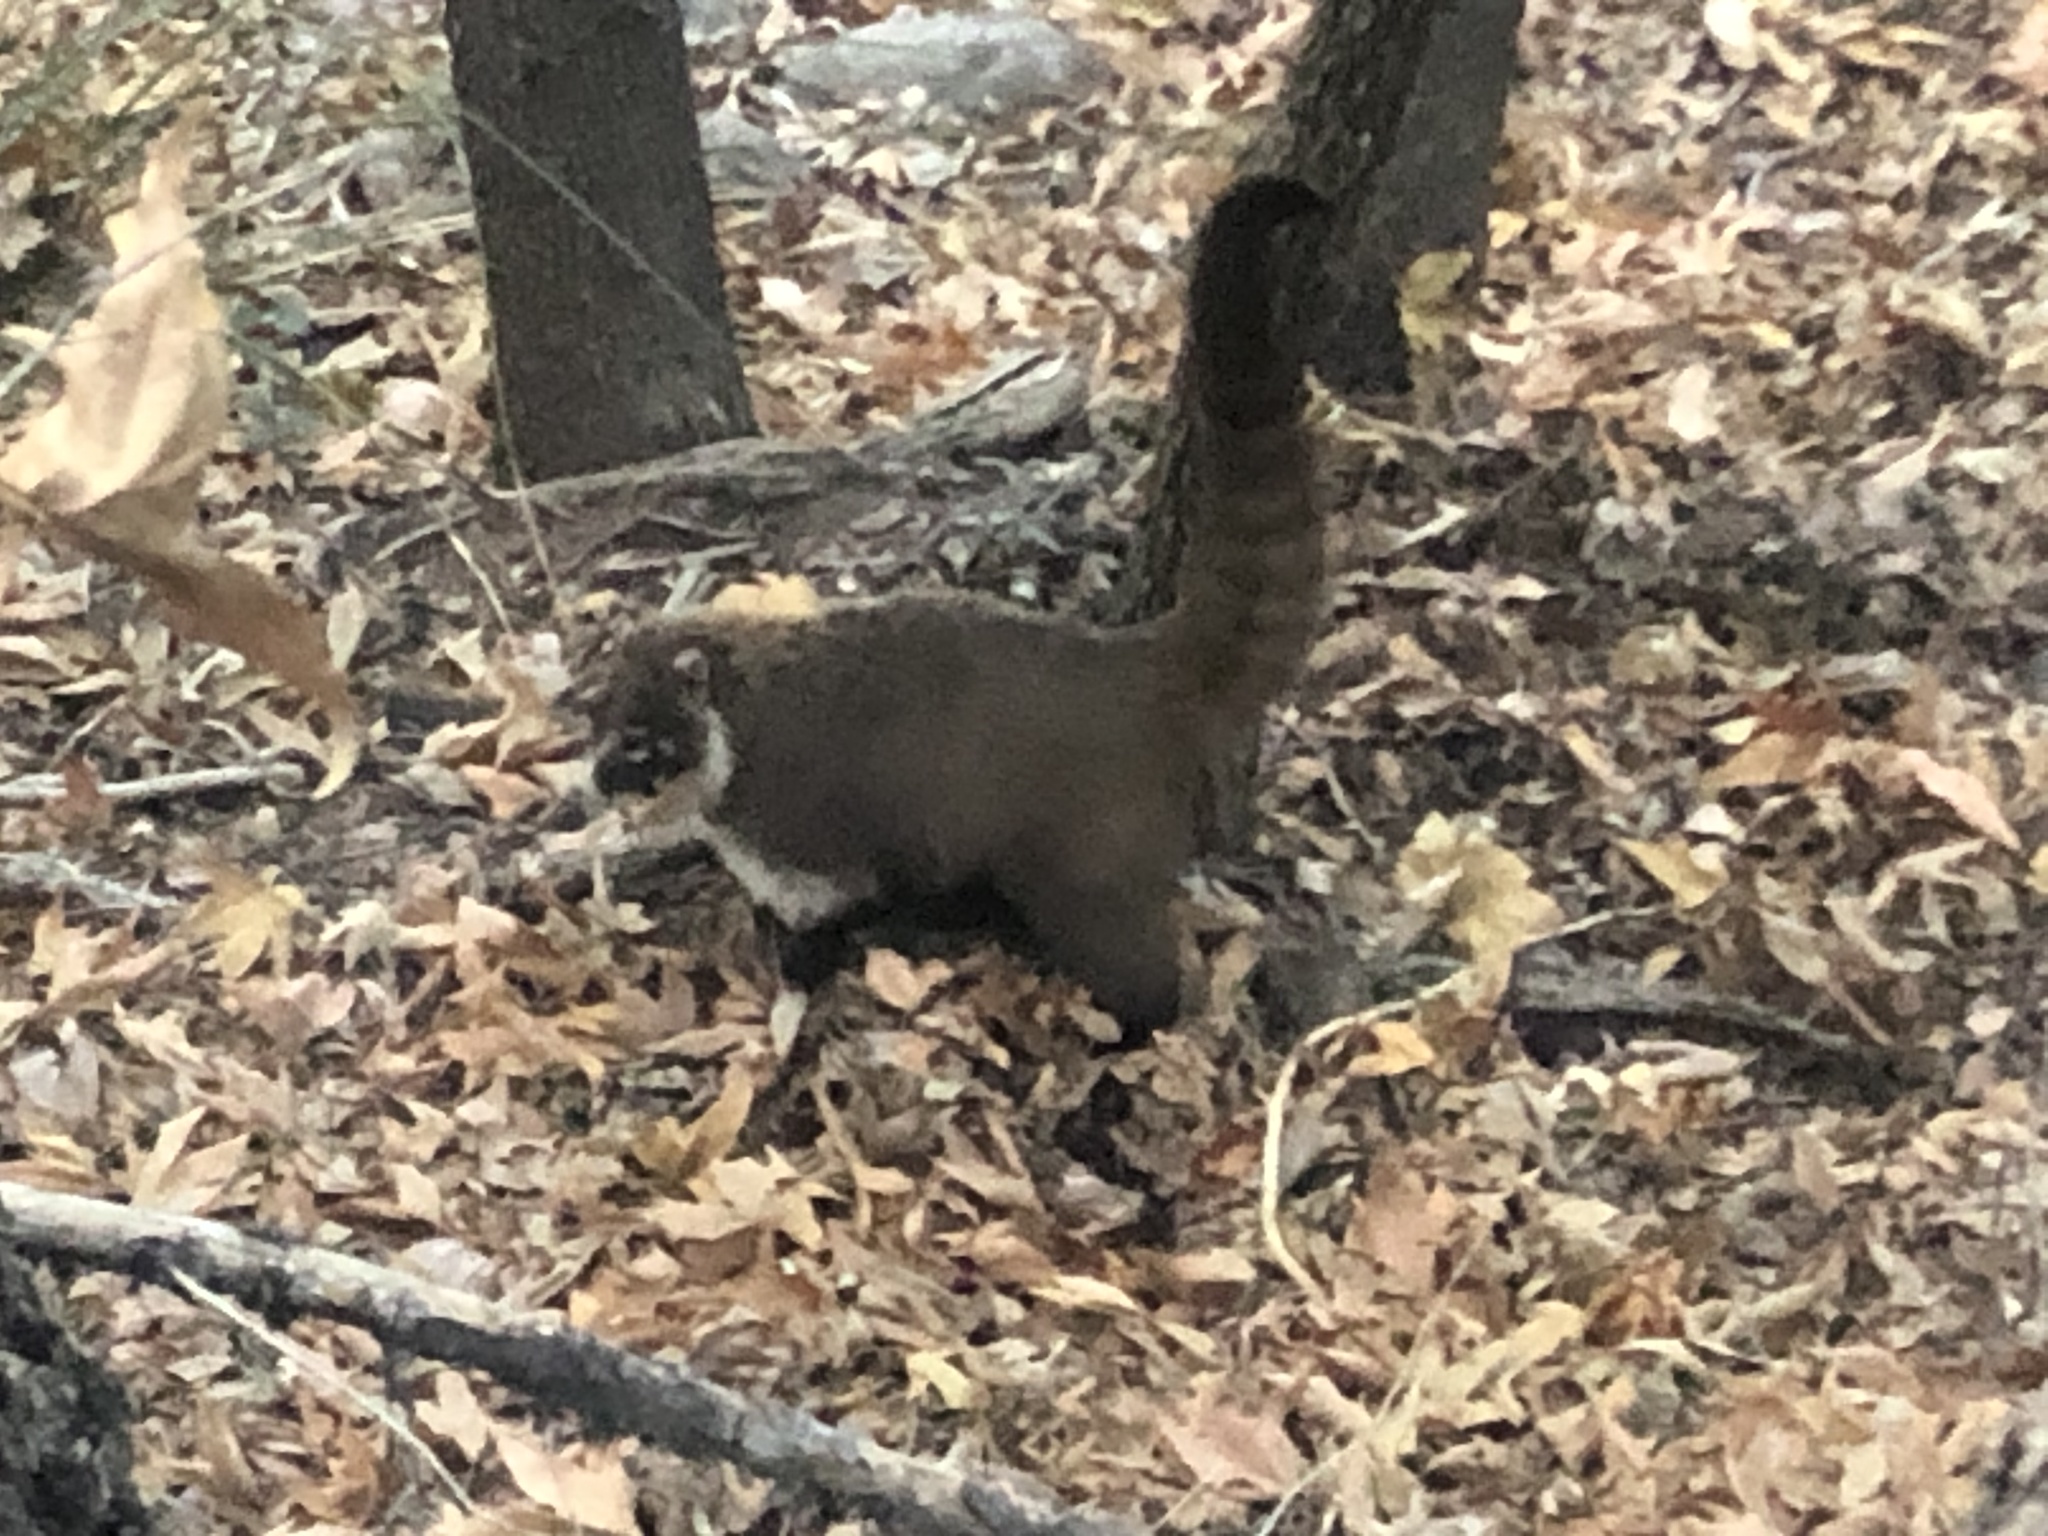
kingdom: Animalia
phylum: Chordata
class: Mammalia
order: Carnivora
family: Procyonidae
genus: Nasua
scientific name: Nasua narica
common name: White-nosed coati
